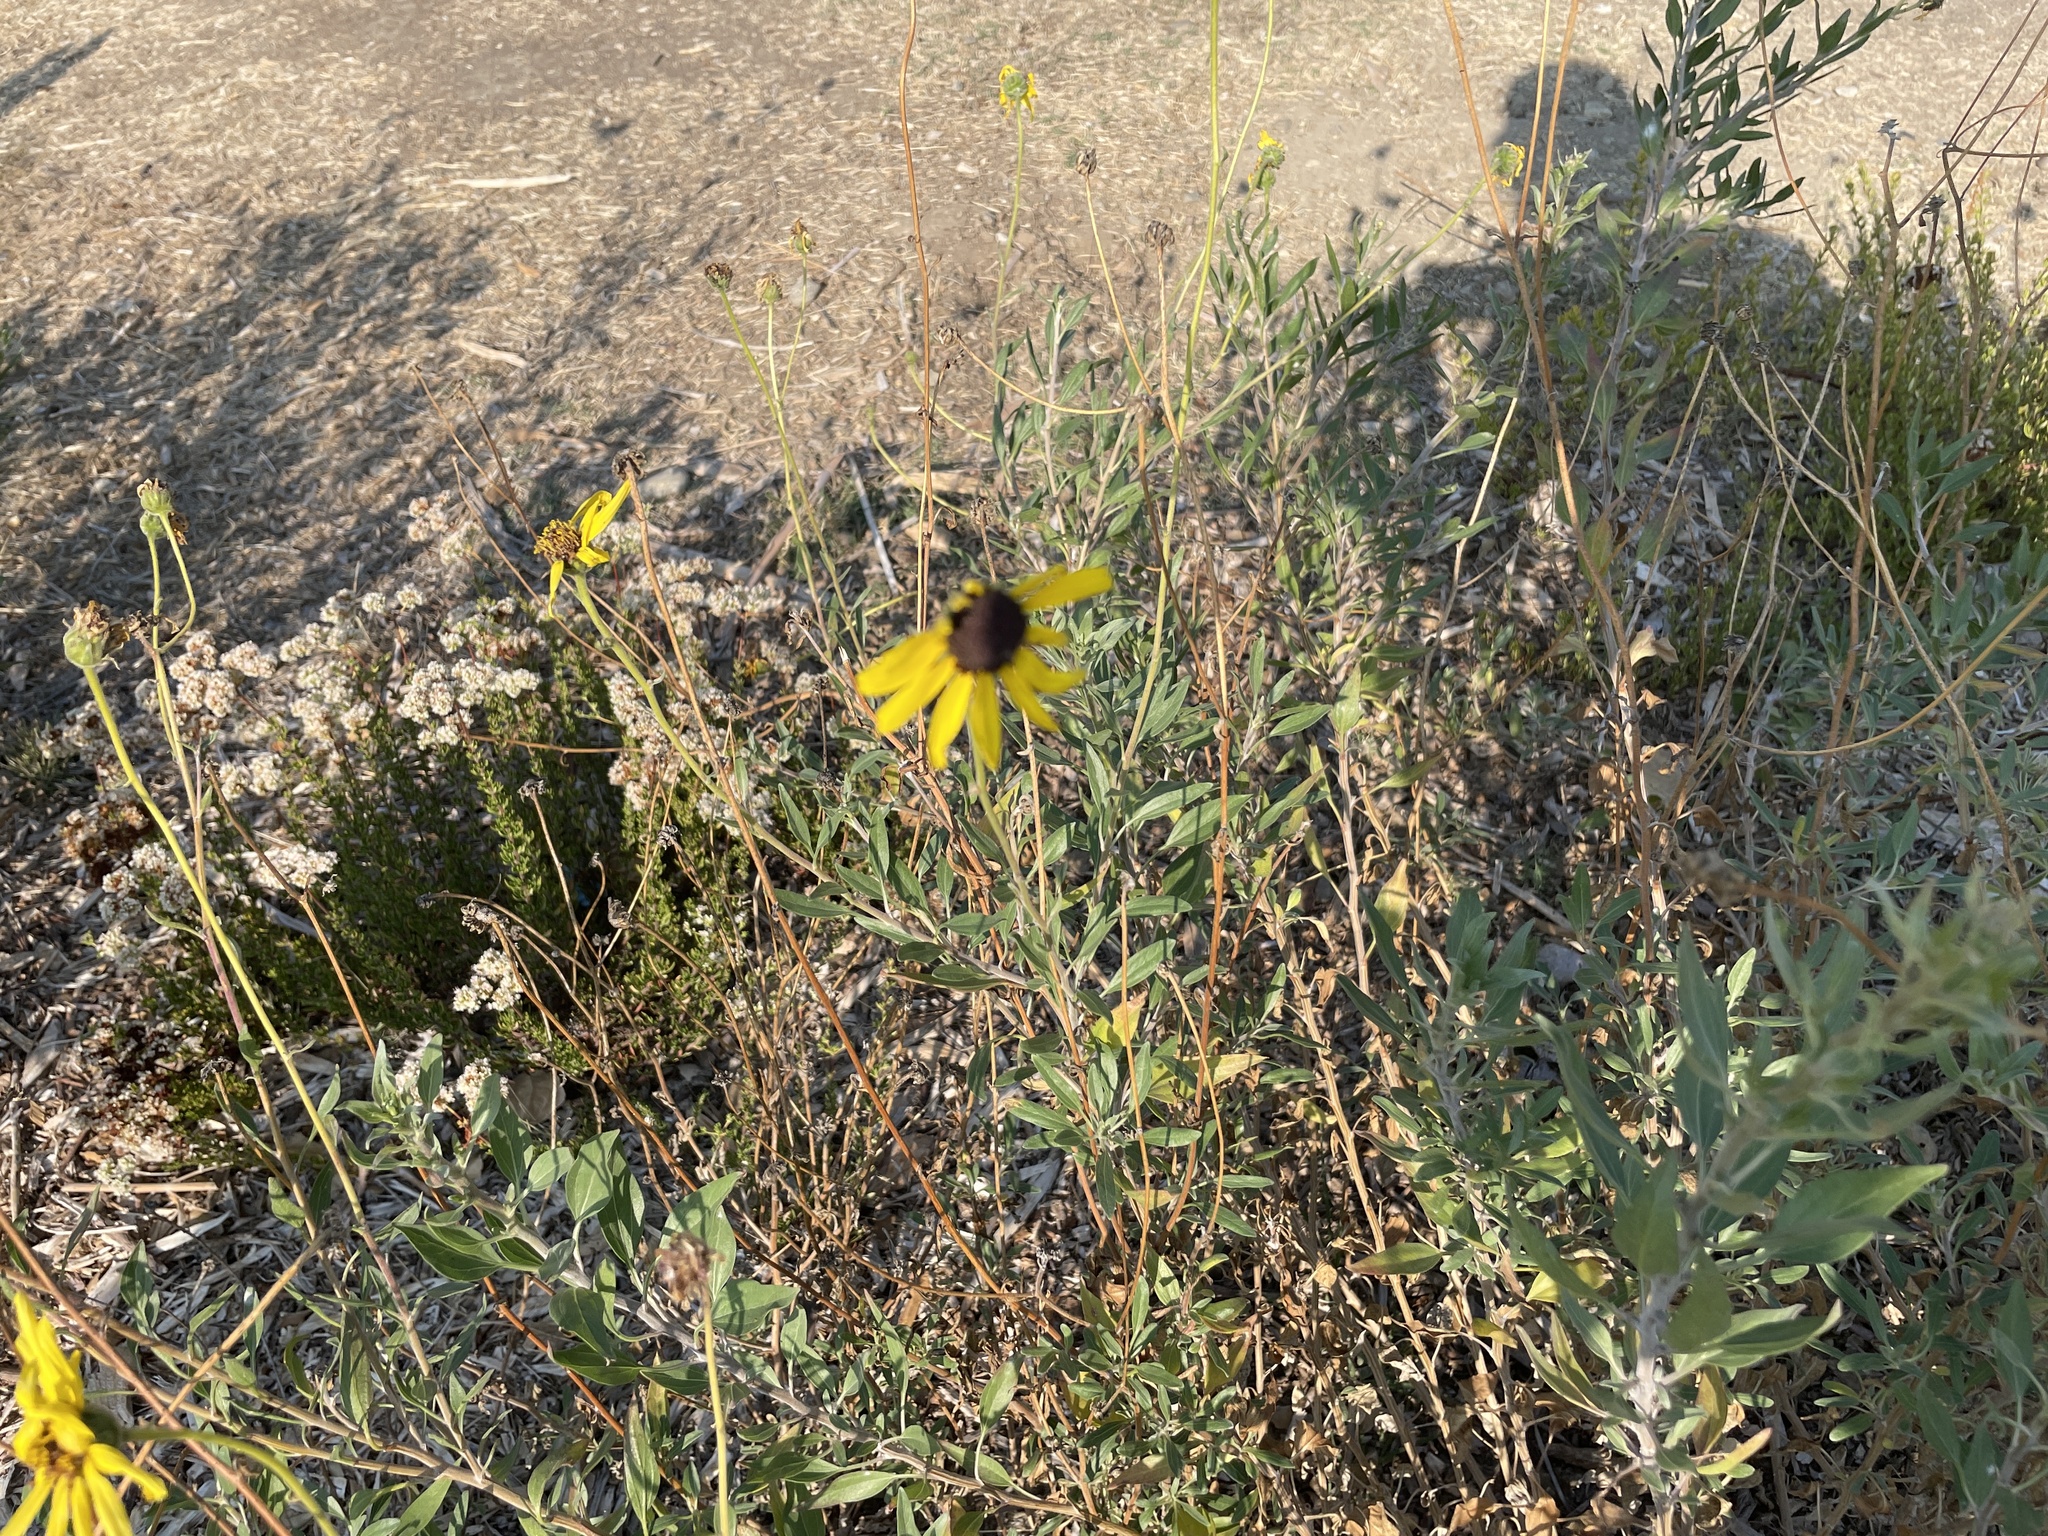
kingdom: Plantae
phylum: Tracheophyta
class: Magnoliopsida
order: Asterales
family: Asteraceae
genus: Encelia
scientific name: Encelia californica
